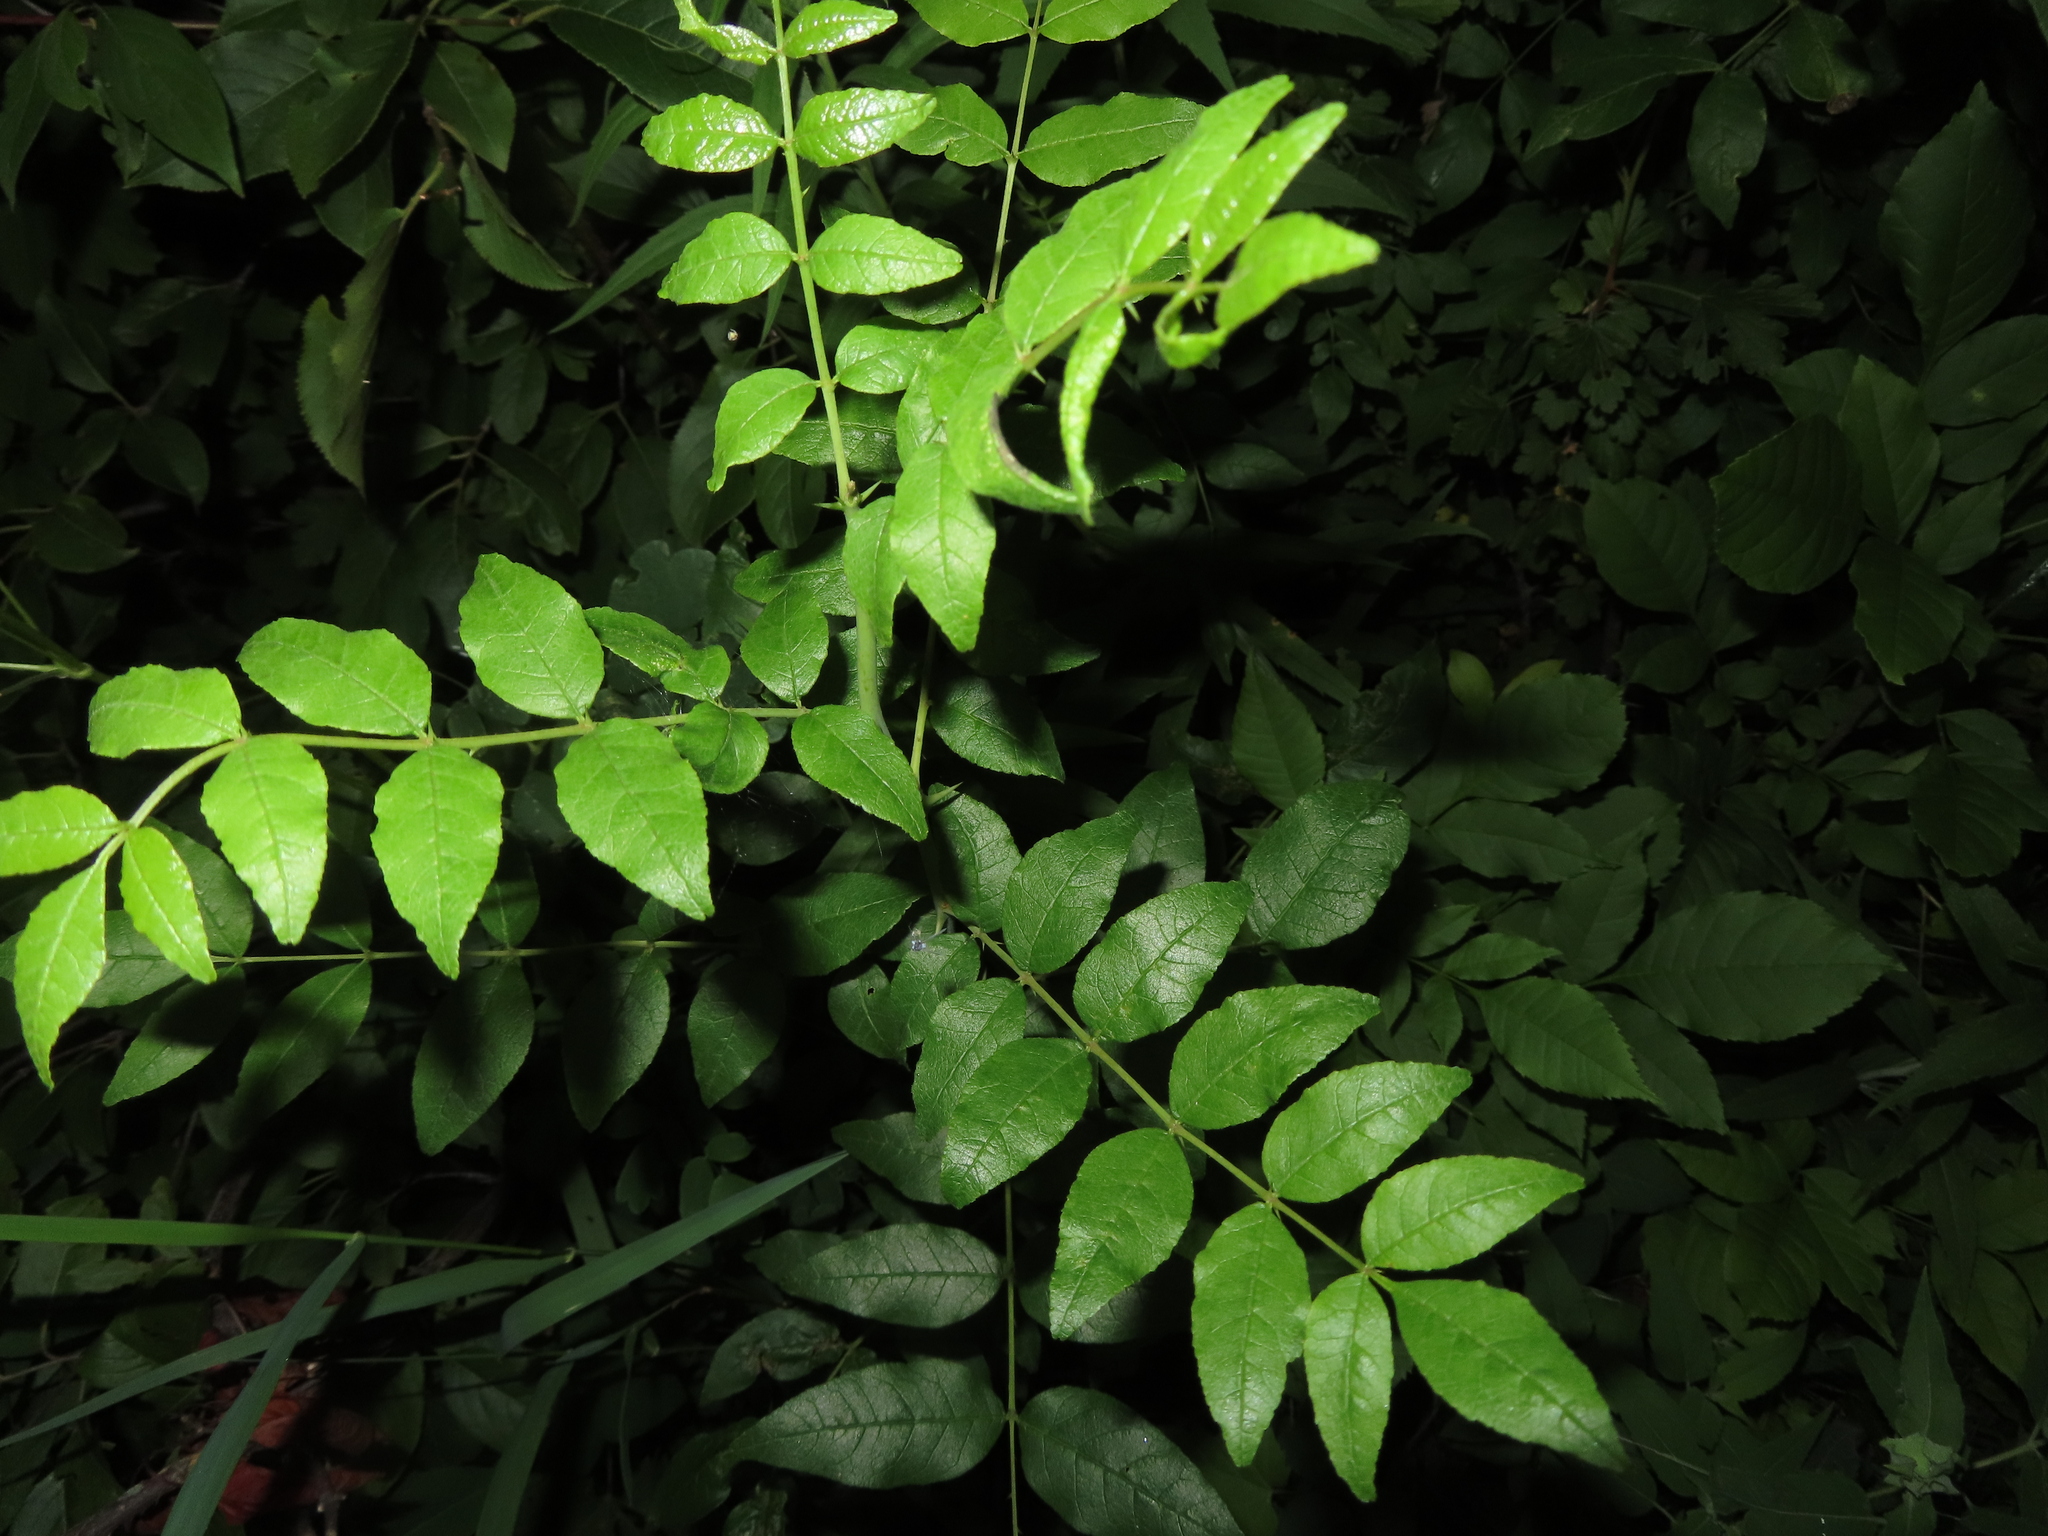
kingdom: Plantae
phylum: Tracheophyta
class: Magnoliopsida
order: Sapindales
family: Rutaceae
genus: Zanthoxylum
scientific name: Zanthoxylum americanum
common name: Northern prickly-ash
